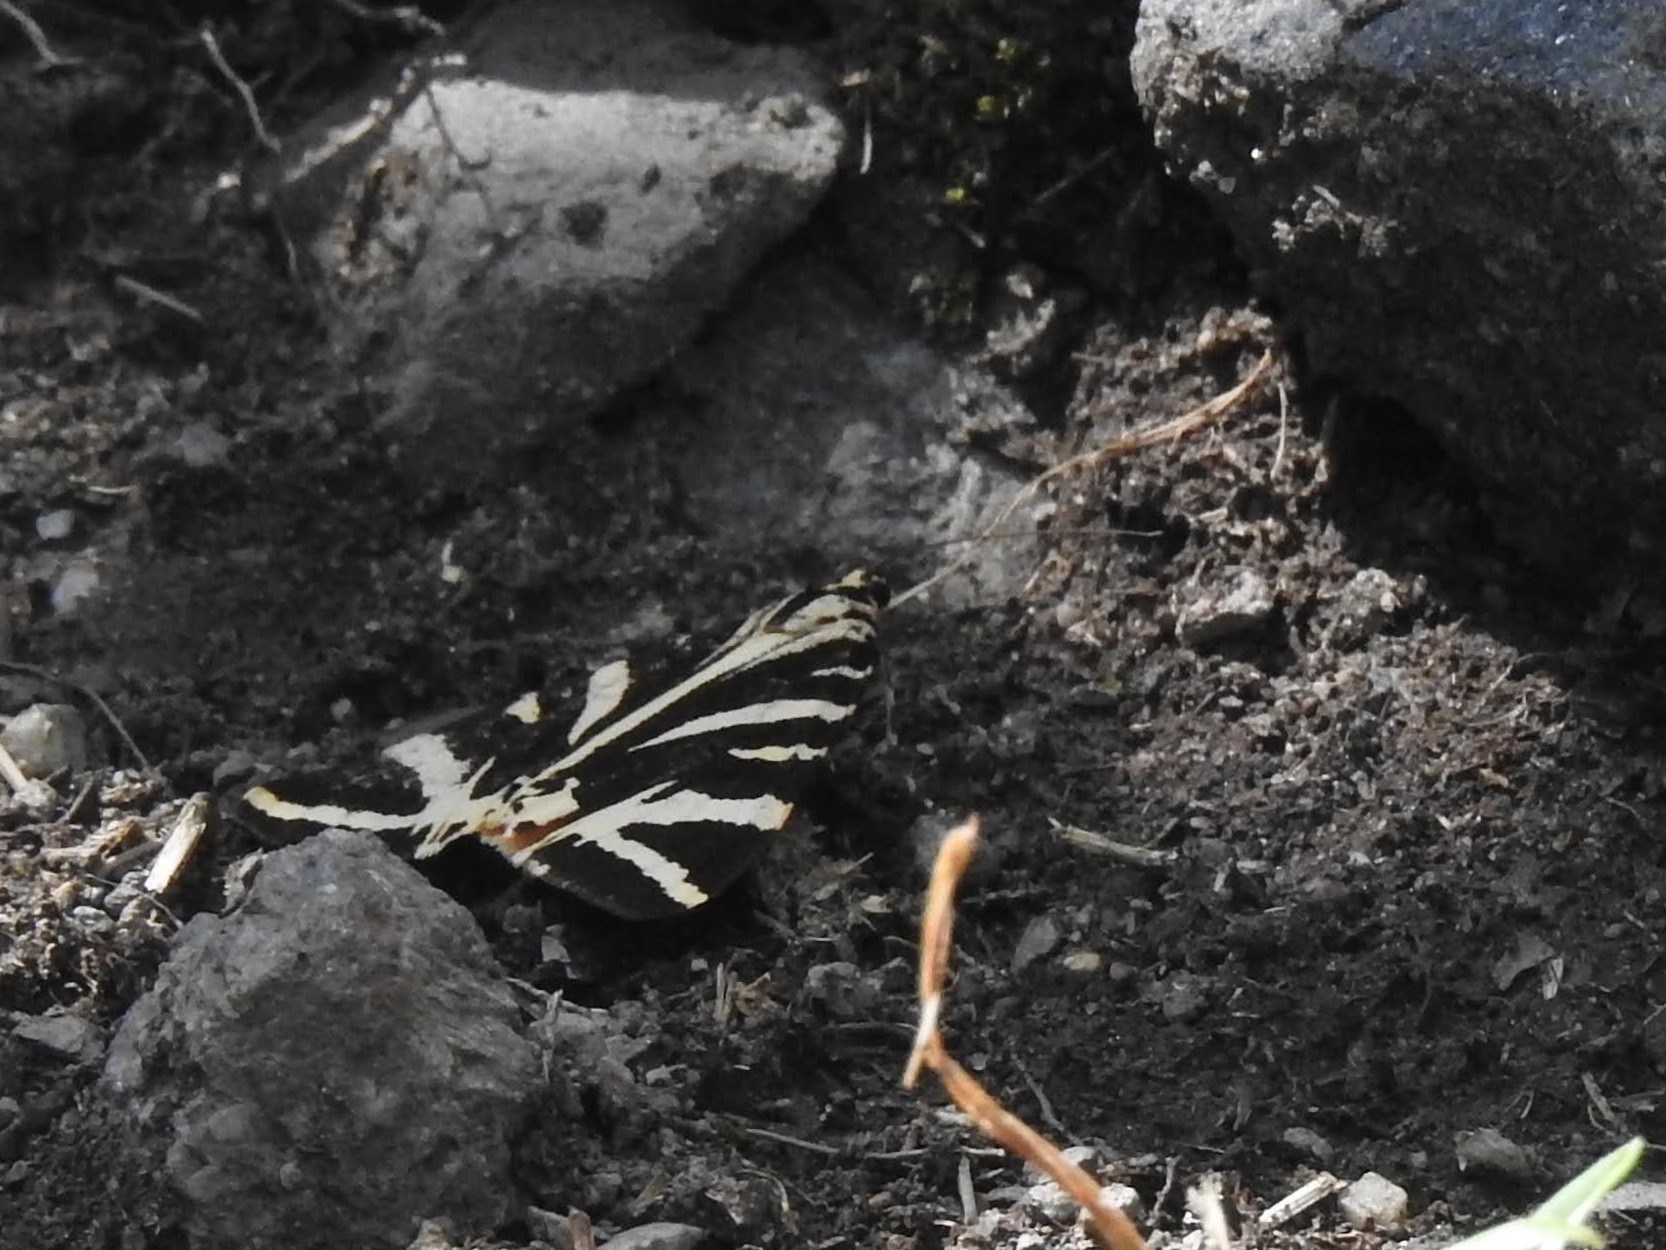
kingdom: Animalia
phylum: Arthropoda
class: Insecta
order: Lepidoptera
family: Erebidae
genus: Euplagia
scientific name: Euplagia quadripunctaria
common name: Jersey tiger
